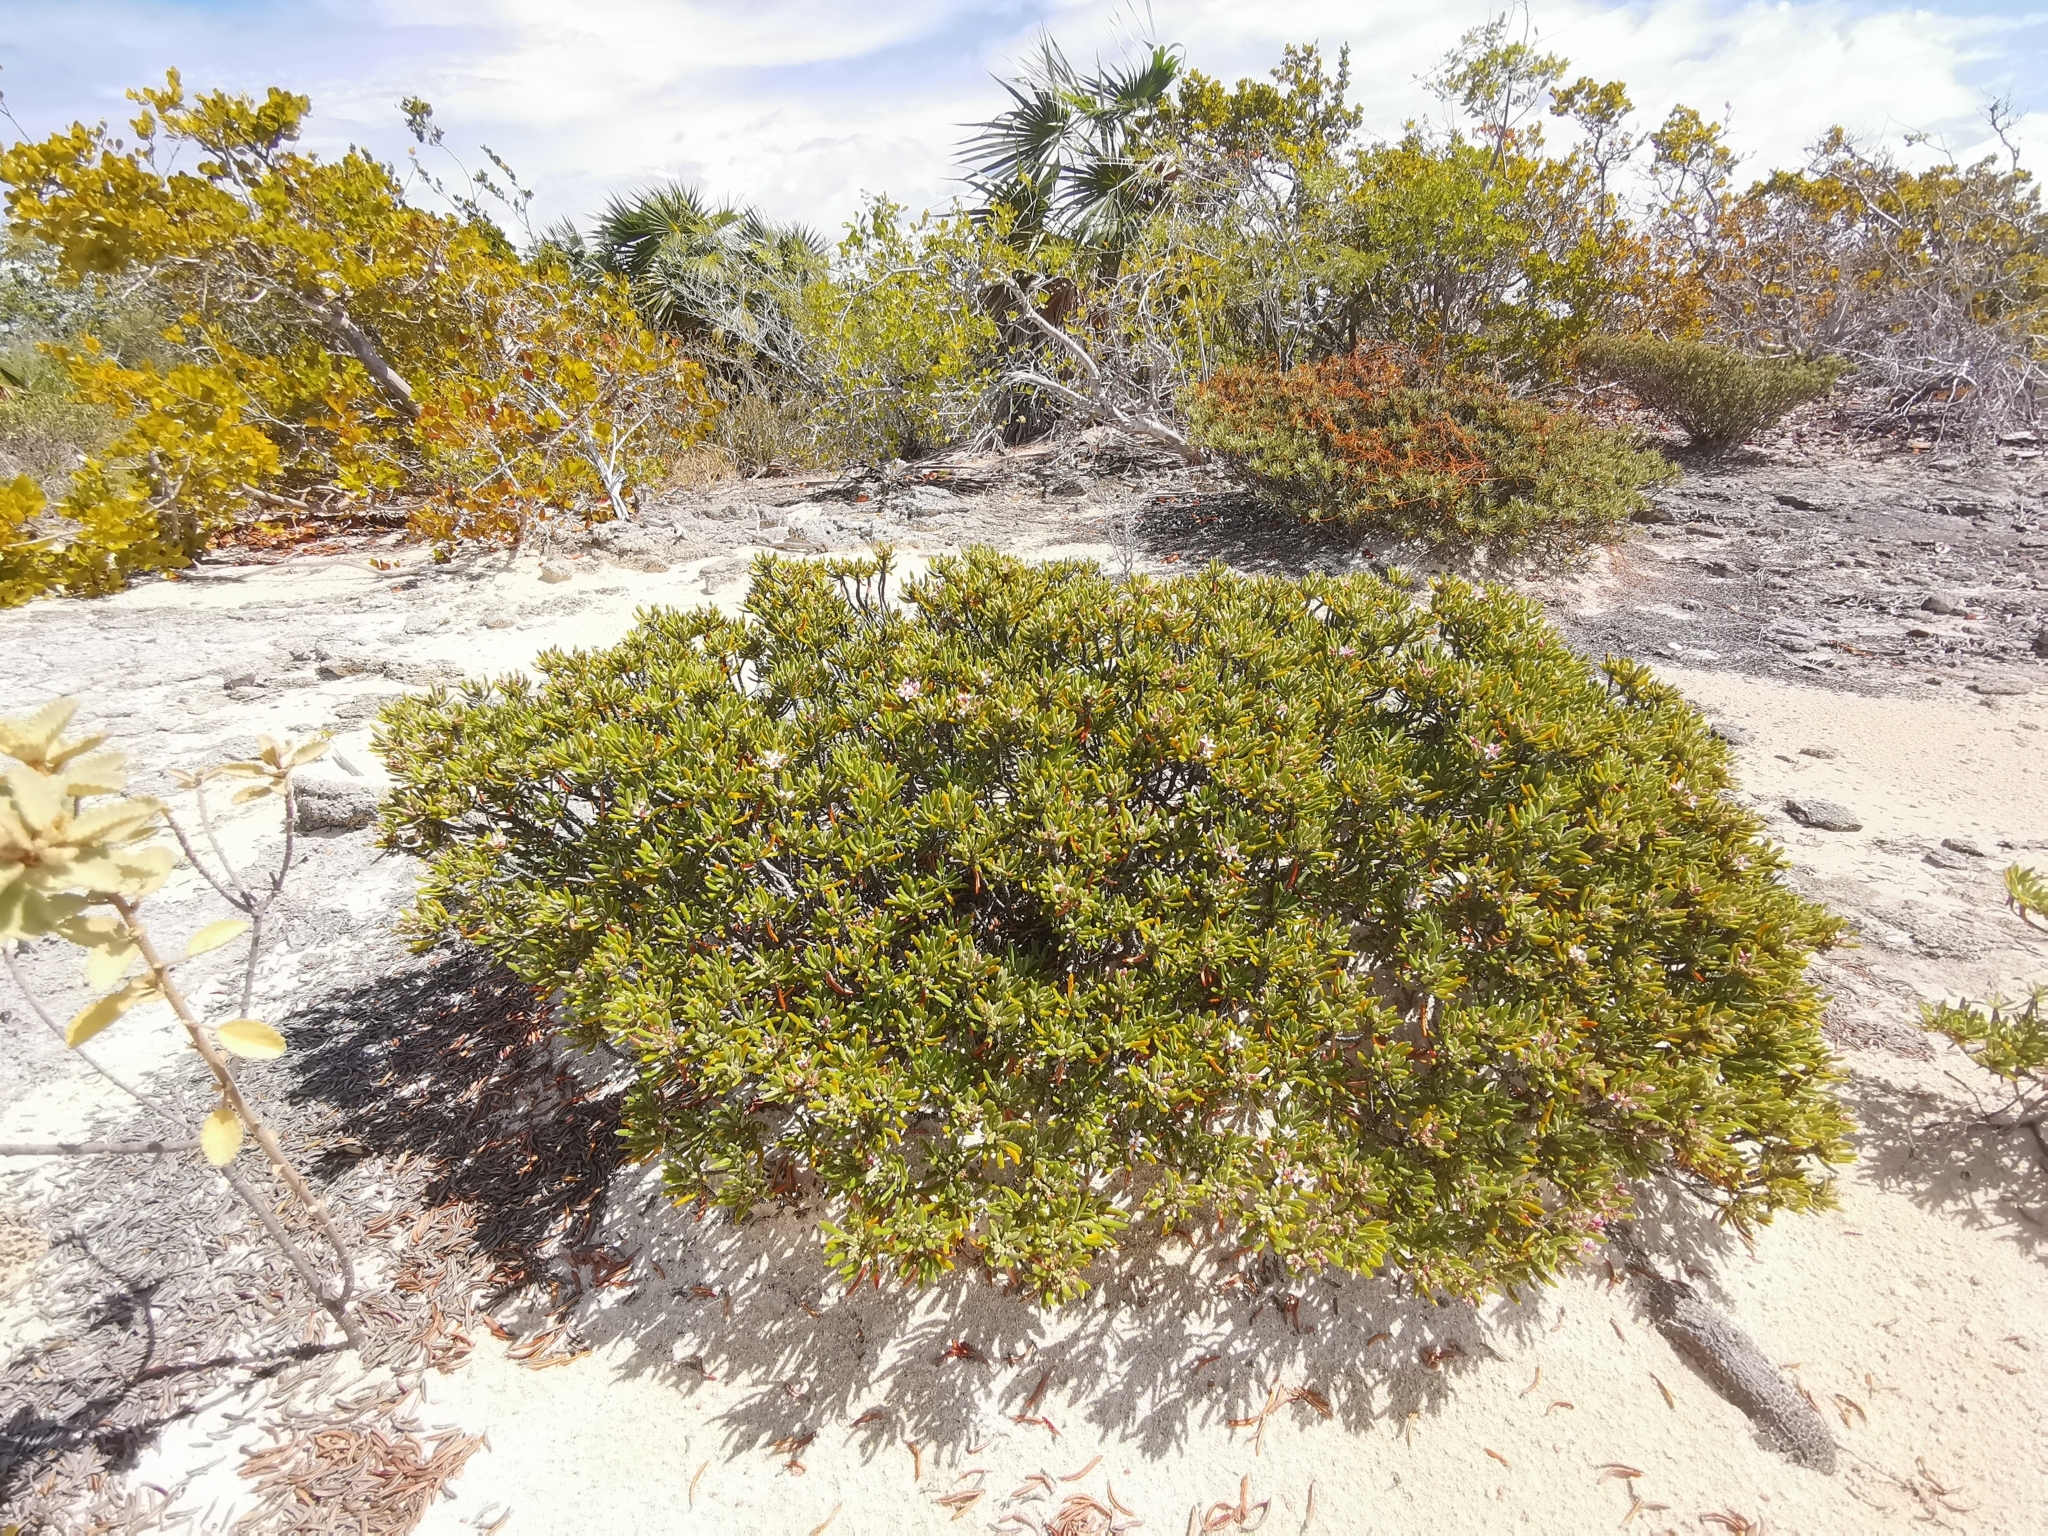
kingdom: Plantae
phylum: Tracheophyta
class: Magnoliopsida
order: Gentianales
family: Rubiaceae
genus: Strumpfia
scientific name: Strumpfia maritima
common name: Pride-of-big pine
